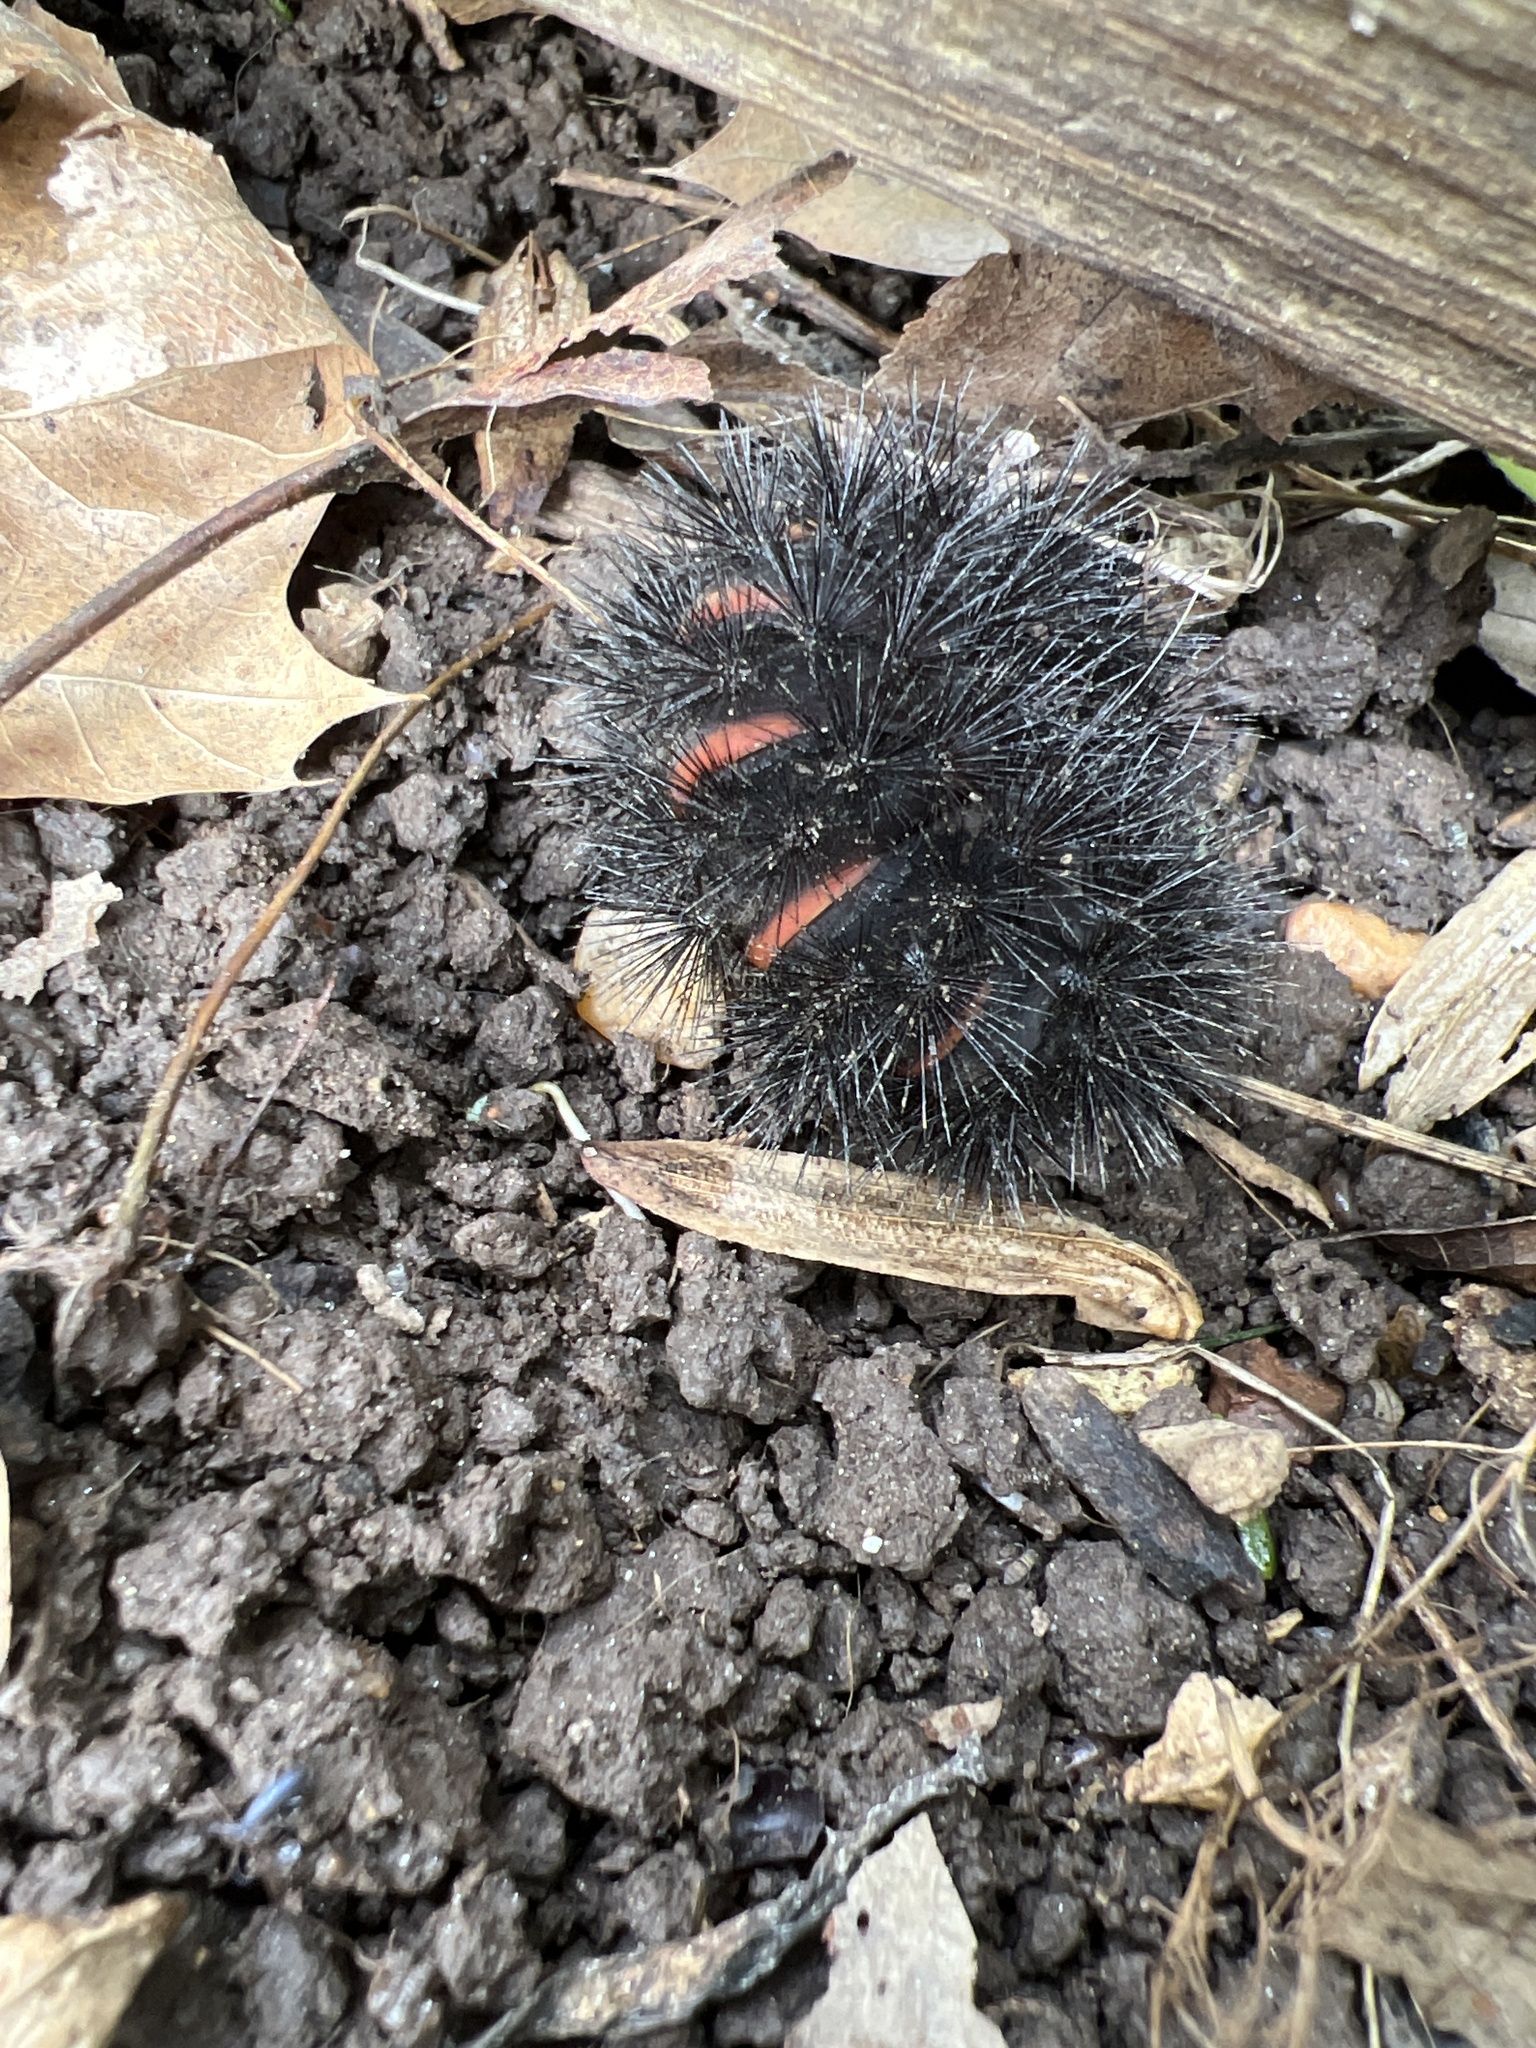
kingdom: Animalia
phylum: Arthropoda
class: Insecta
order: Lepidoptera
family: Erebidae
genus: Hypercompe
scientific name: Hypercompe scribonia
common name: Giant leopard moth
